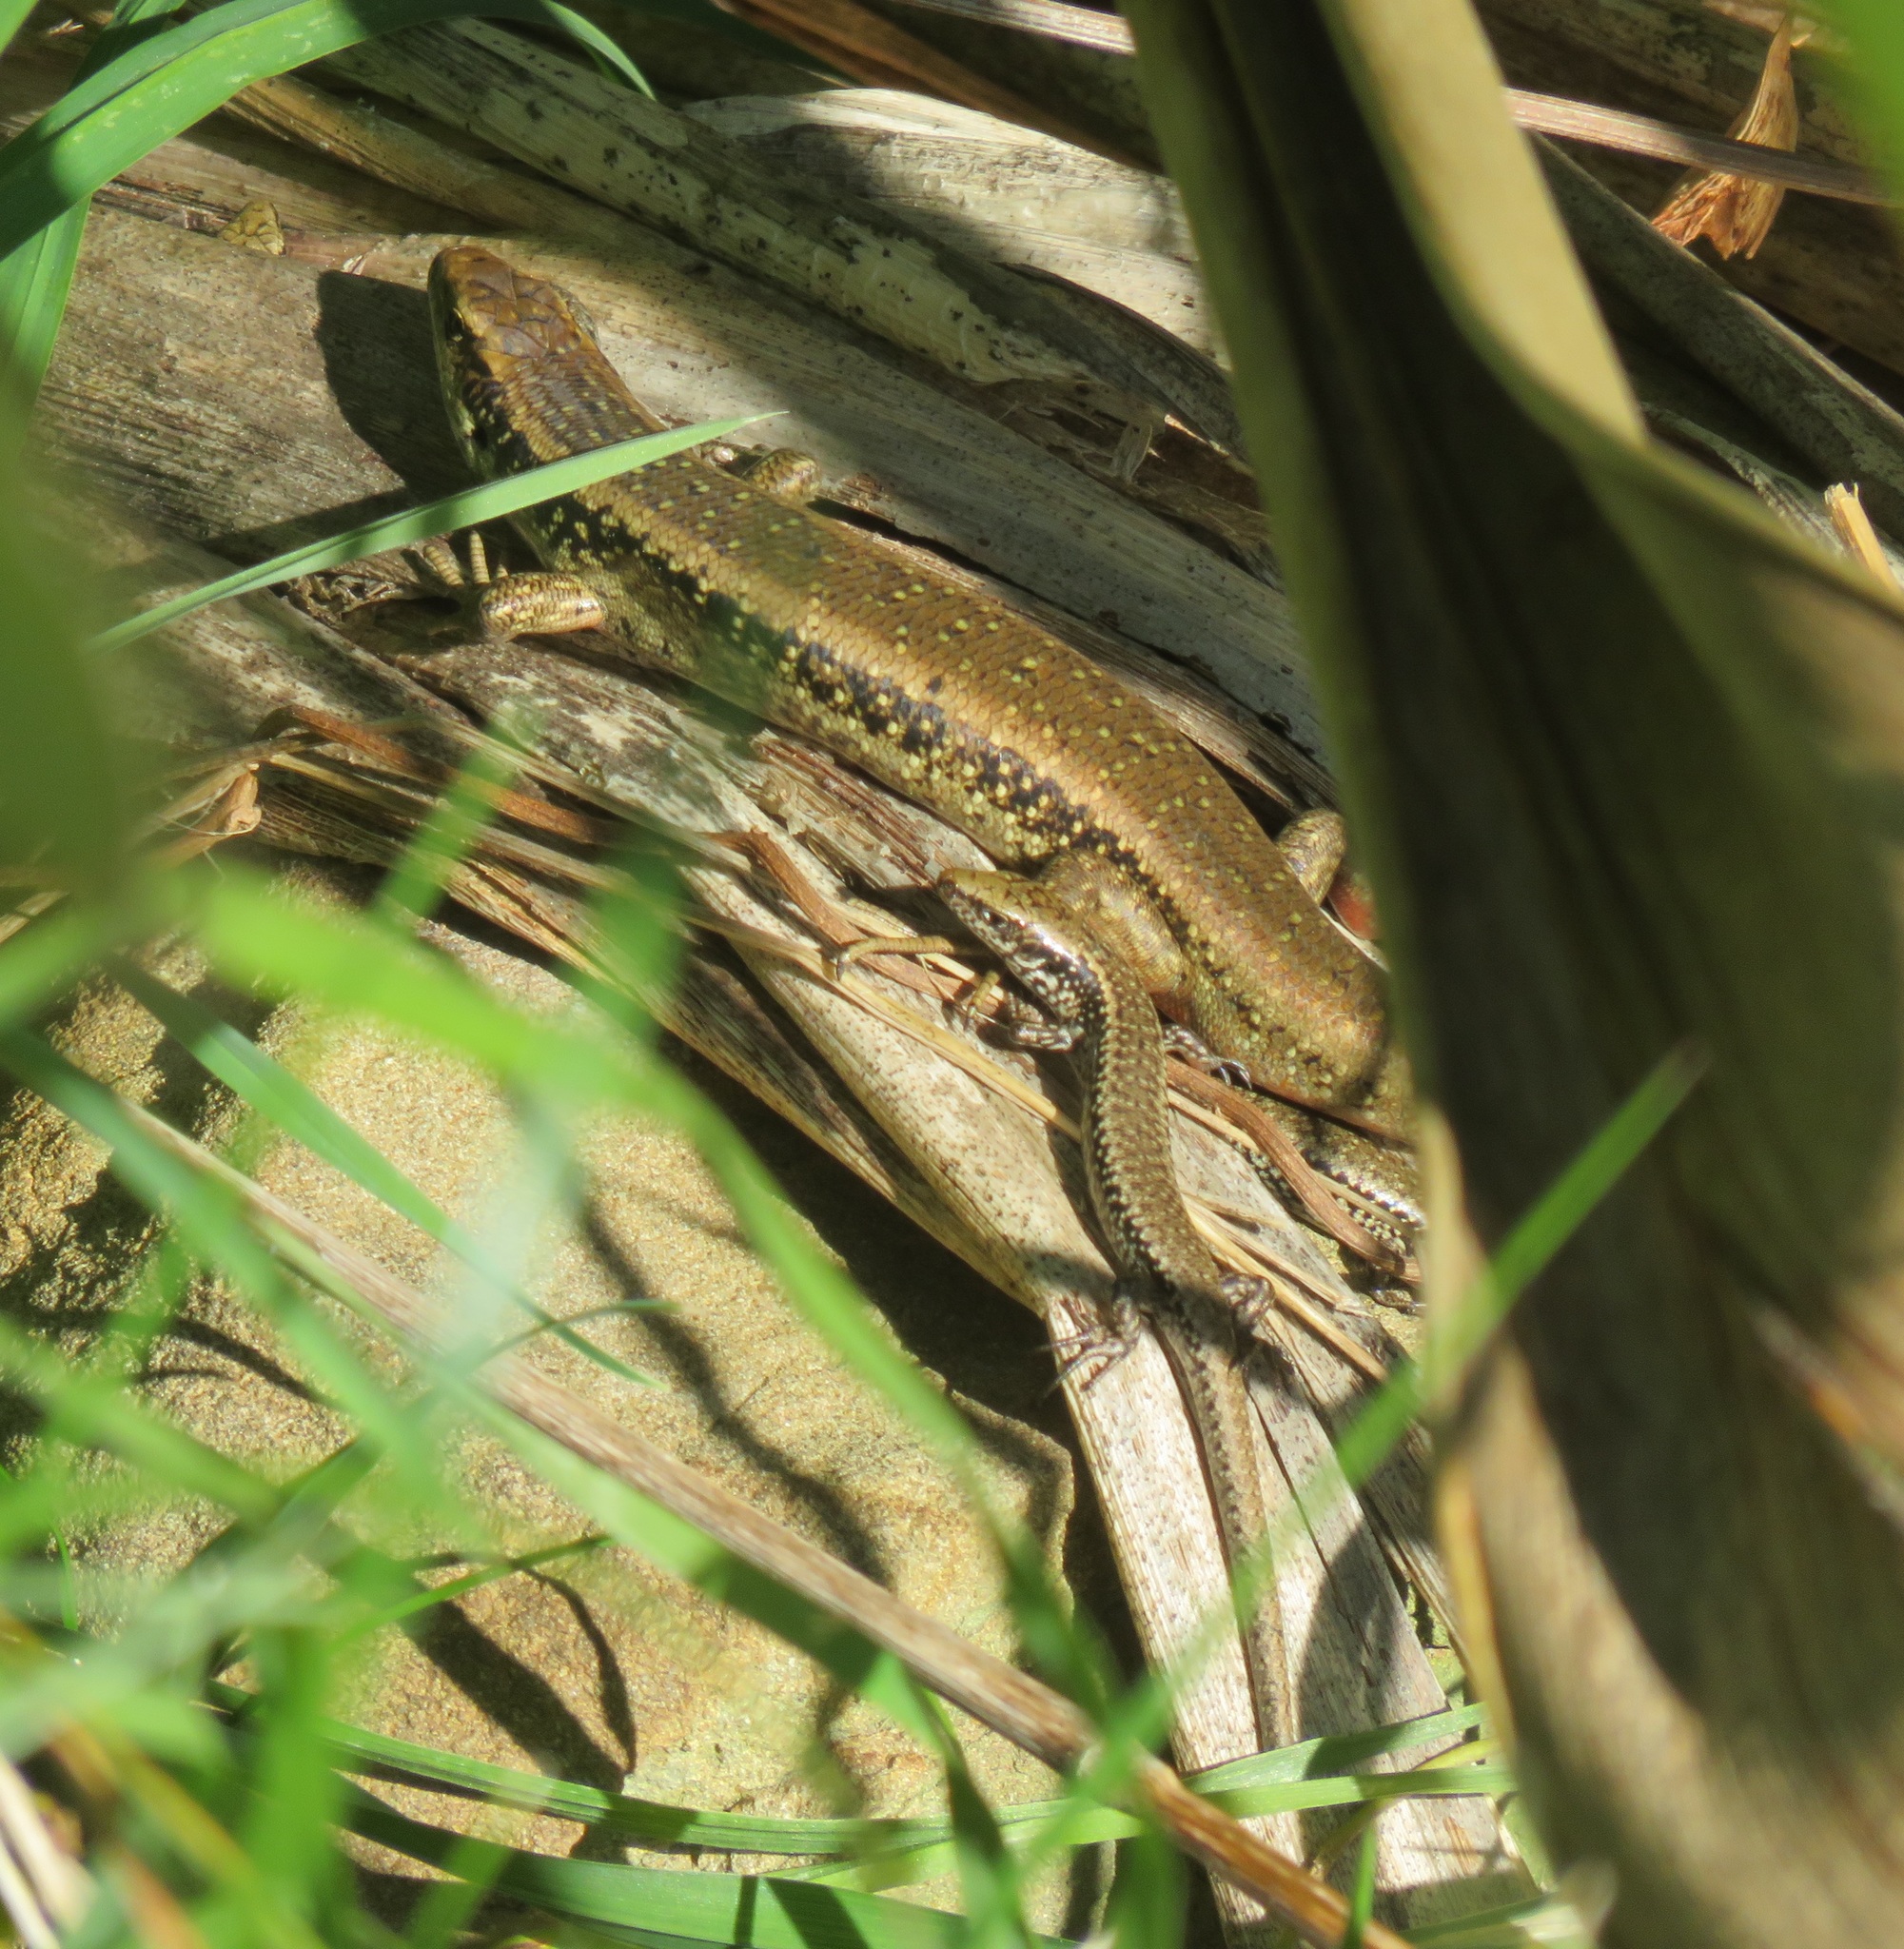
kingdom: Animalia
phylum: Chordata
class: Squamata
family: Scincidae
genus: Oligosoma
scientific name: Oligosoma kokowai
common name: Northern spotted skink
